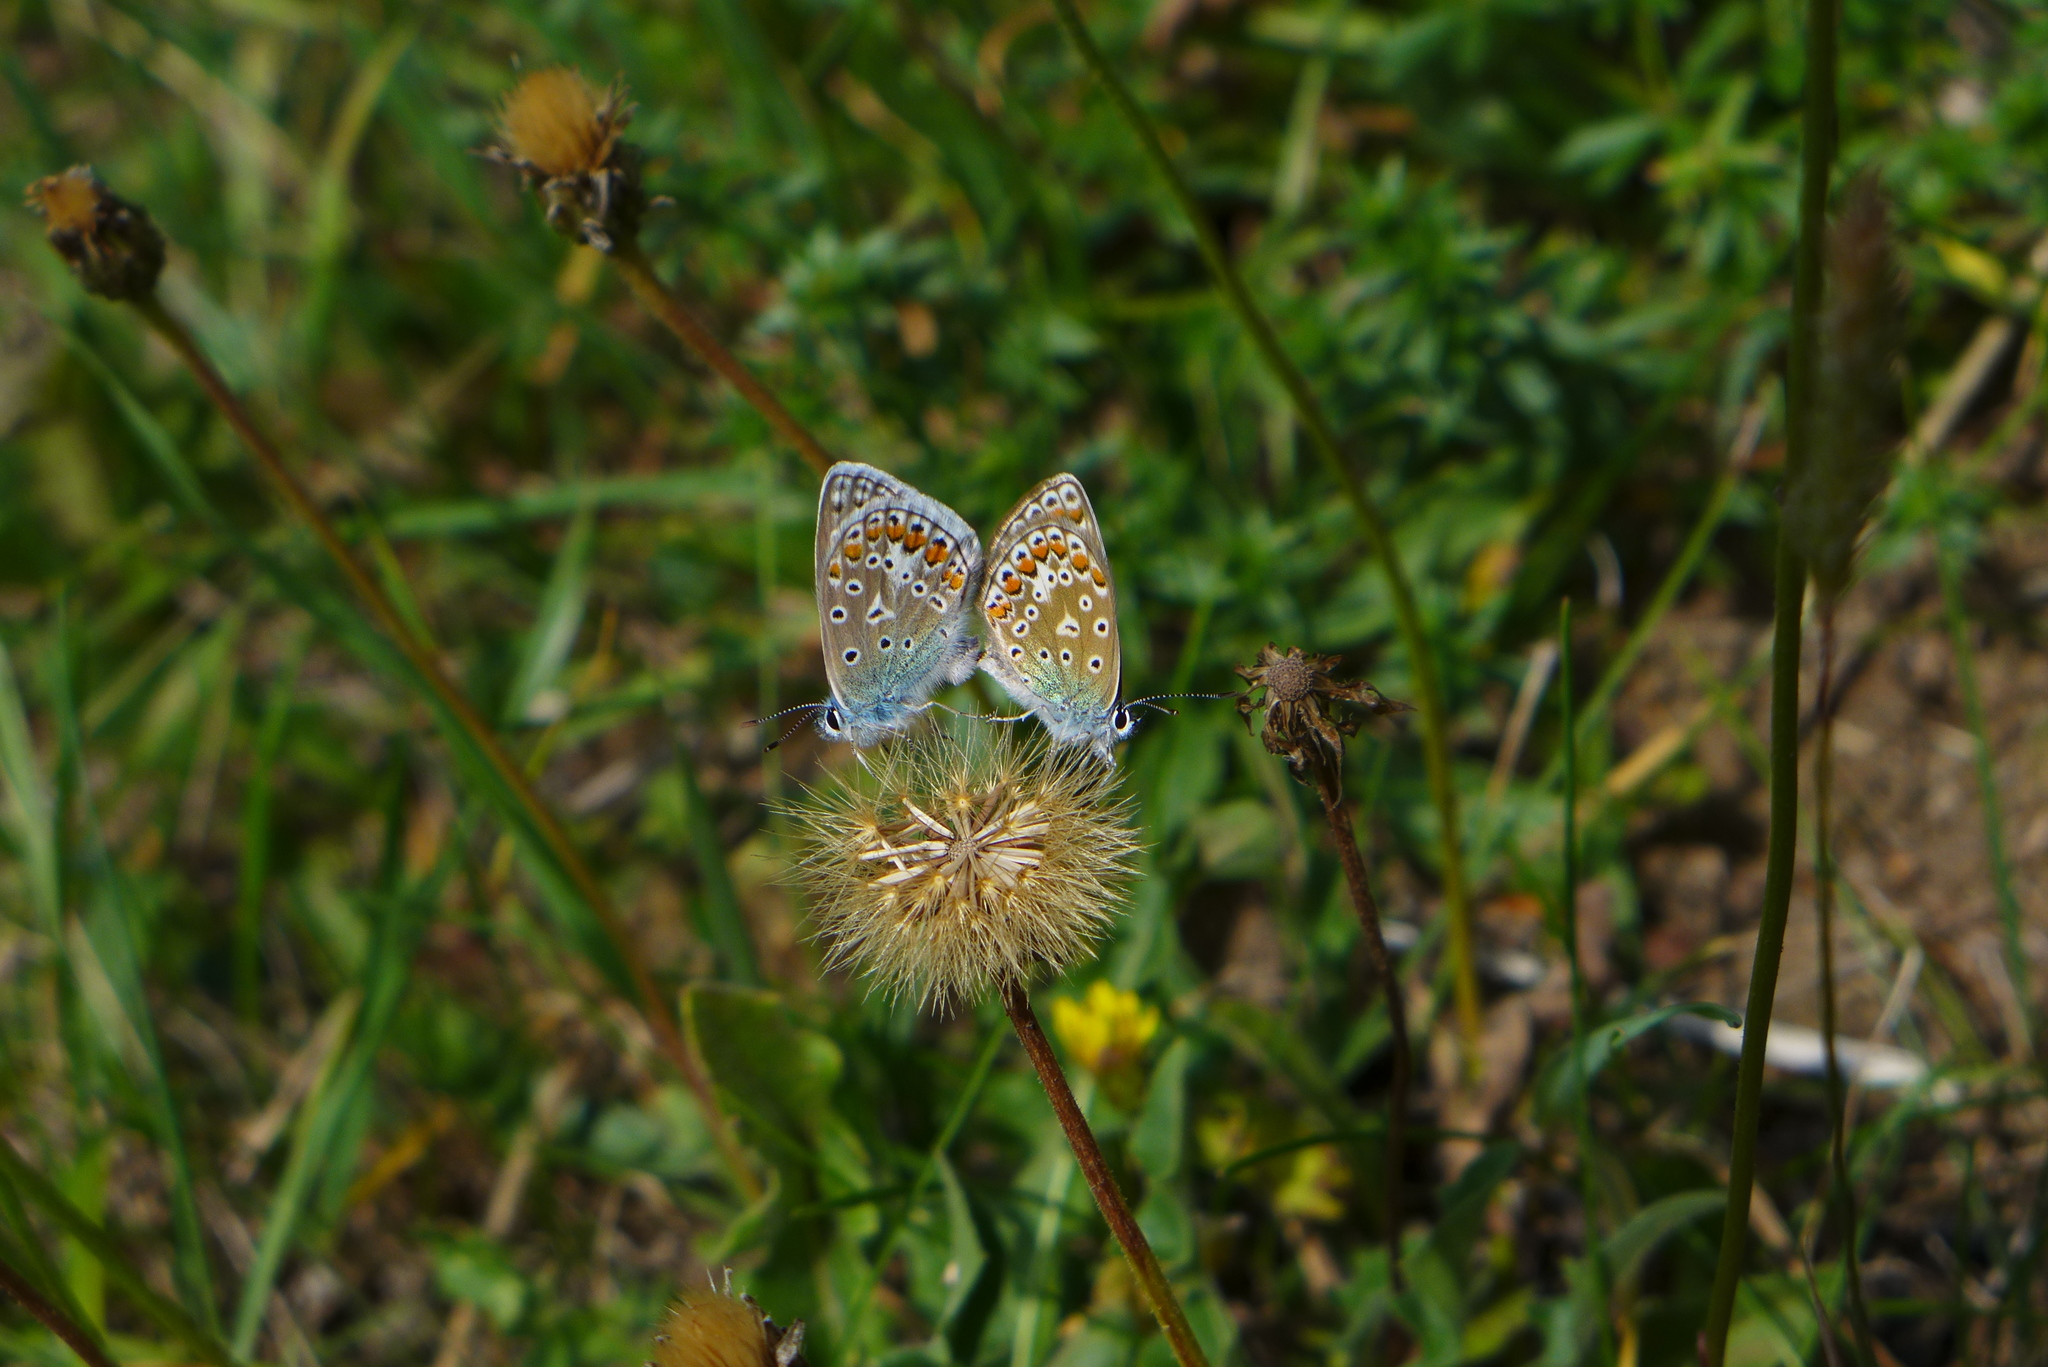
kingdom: Animalia
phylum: Arthropoda
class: Insecta
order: Lepidoptera
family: Lycaenidae
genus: Polyommatus
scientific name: Polyommatus icarus
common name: Common blue
